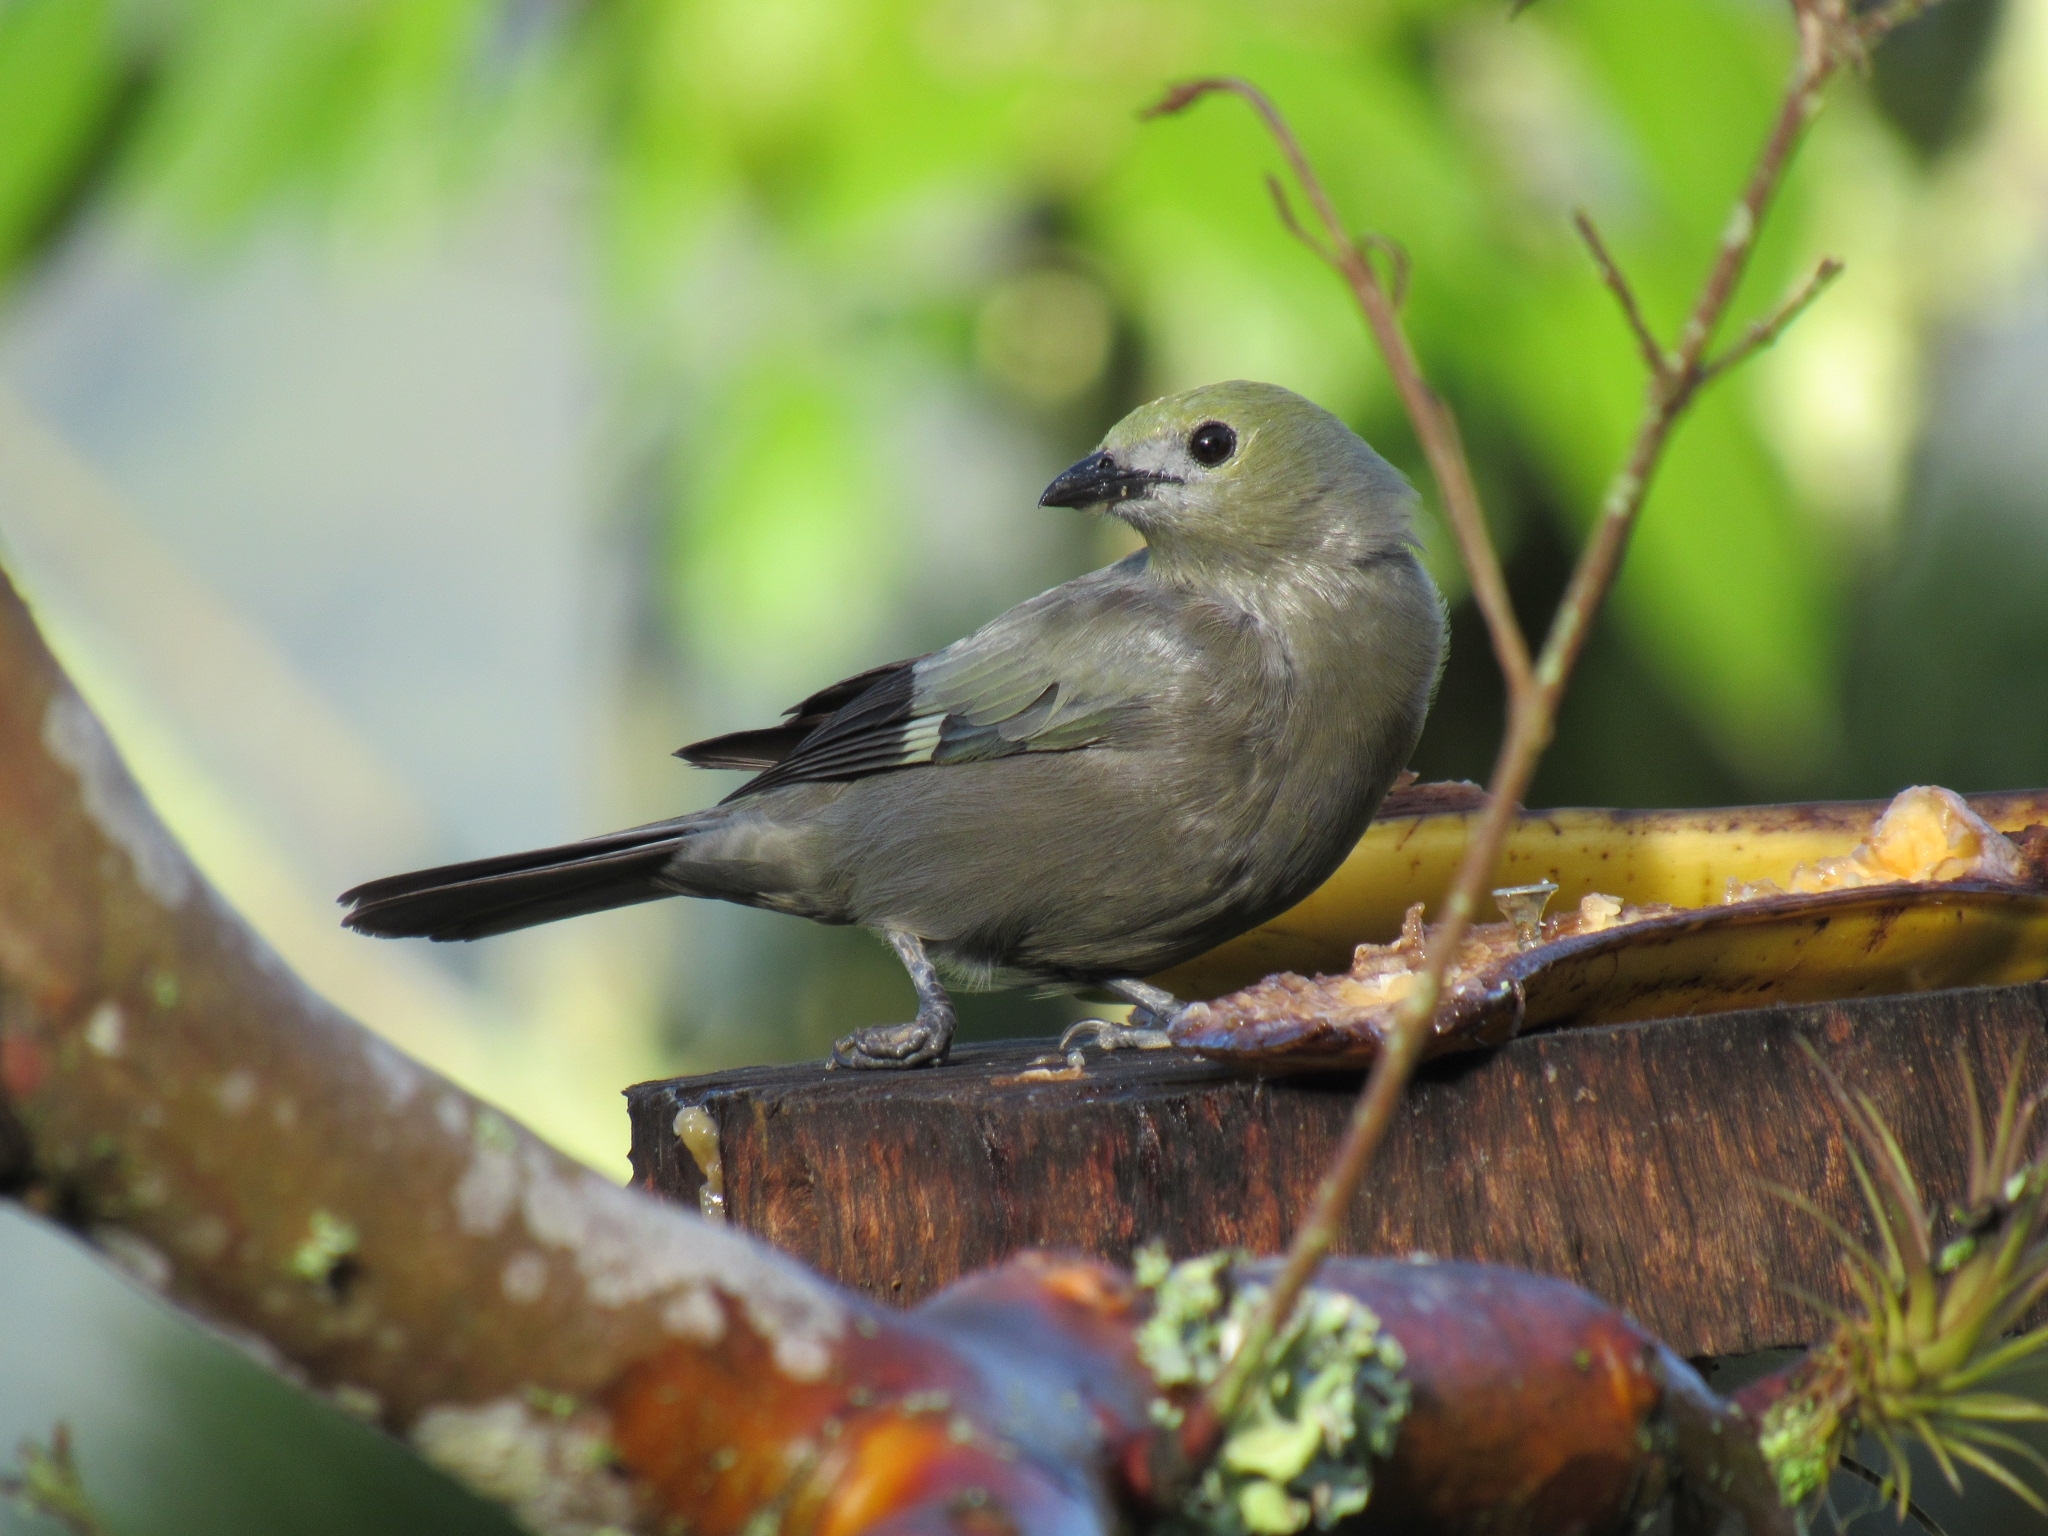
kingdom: Animalia
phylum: Chordata
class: Aves
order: Passeriformes
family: Thraupidae
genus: Thraupis
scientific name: Thraupis palmarum
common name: Palm tanager
